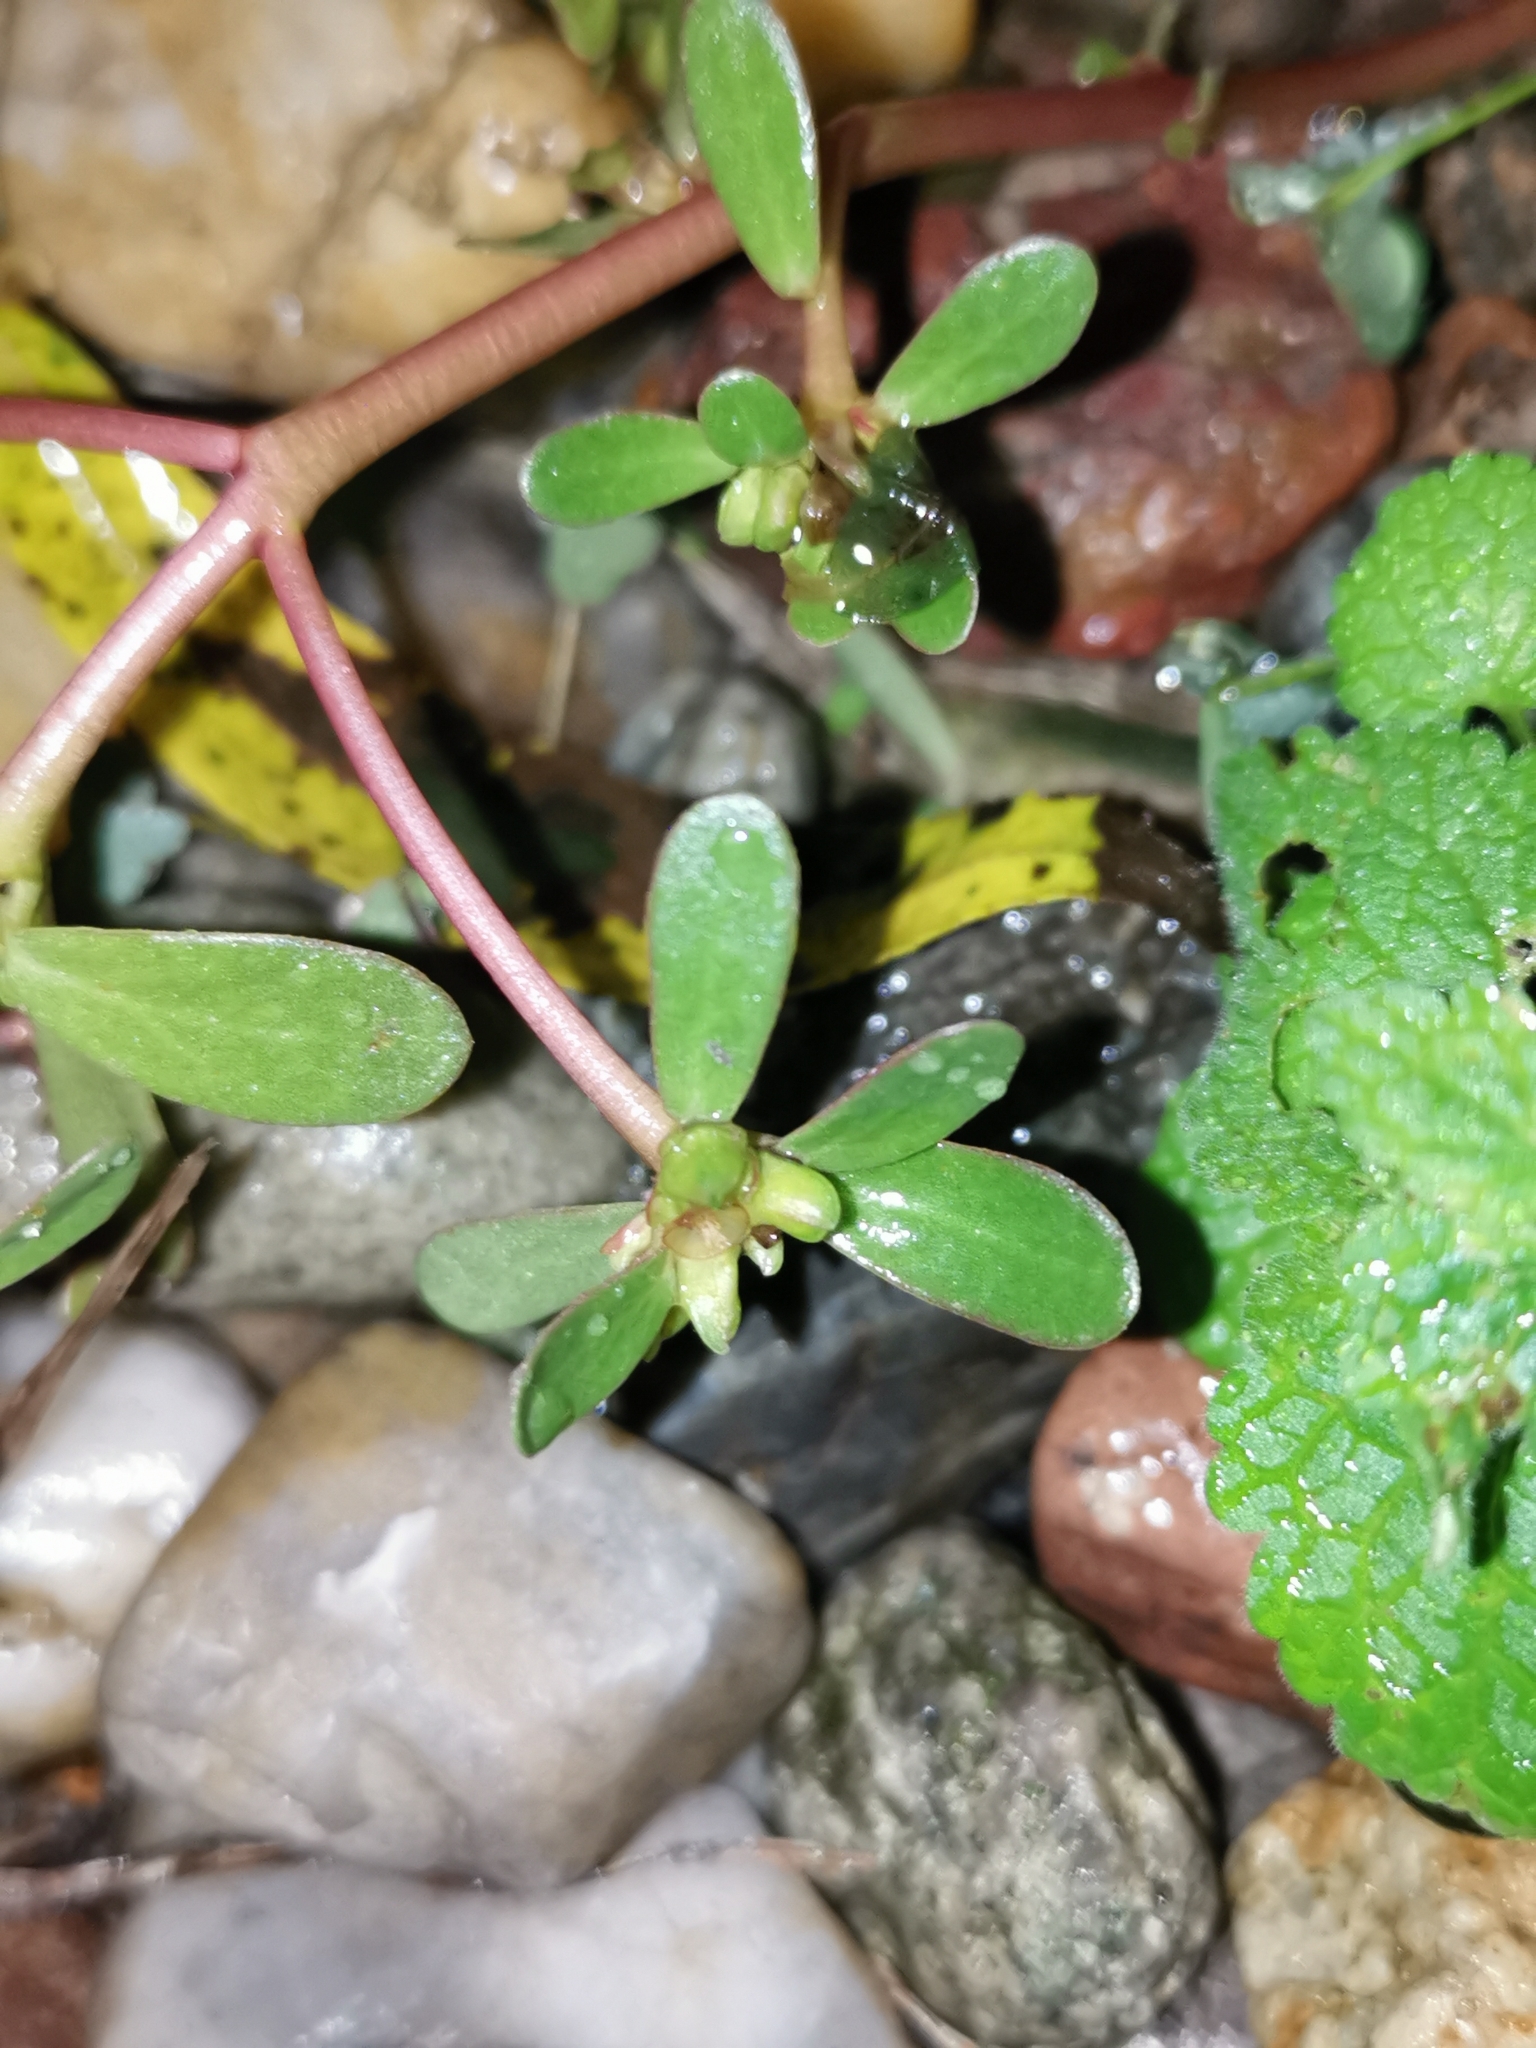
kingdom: Plantae
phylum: Tracheophyta
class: Magnoliopsida
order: Caryophyllales
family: Portulacaceae
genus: Portulaca
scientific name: Portulaca oleracea
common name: Common purslane
